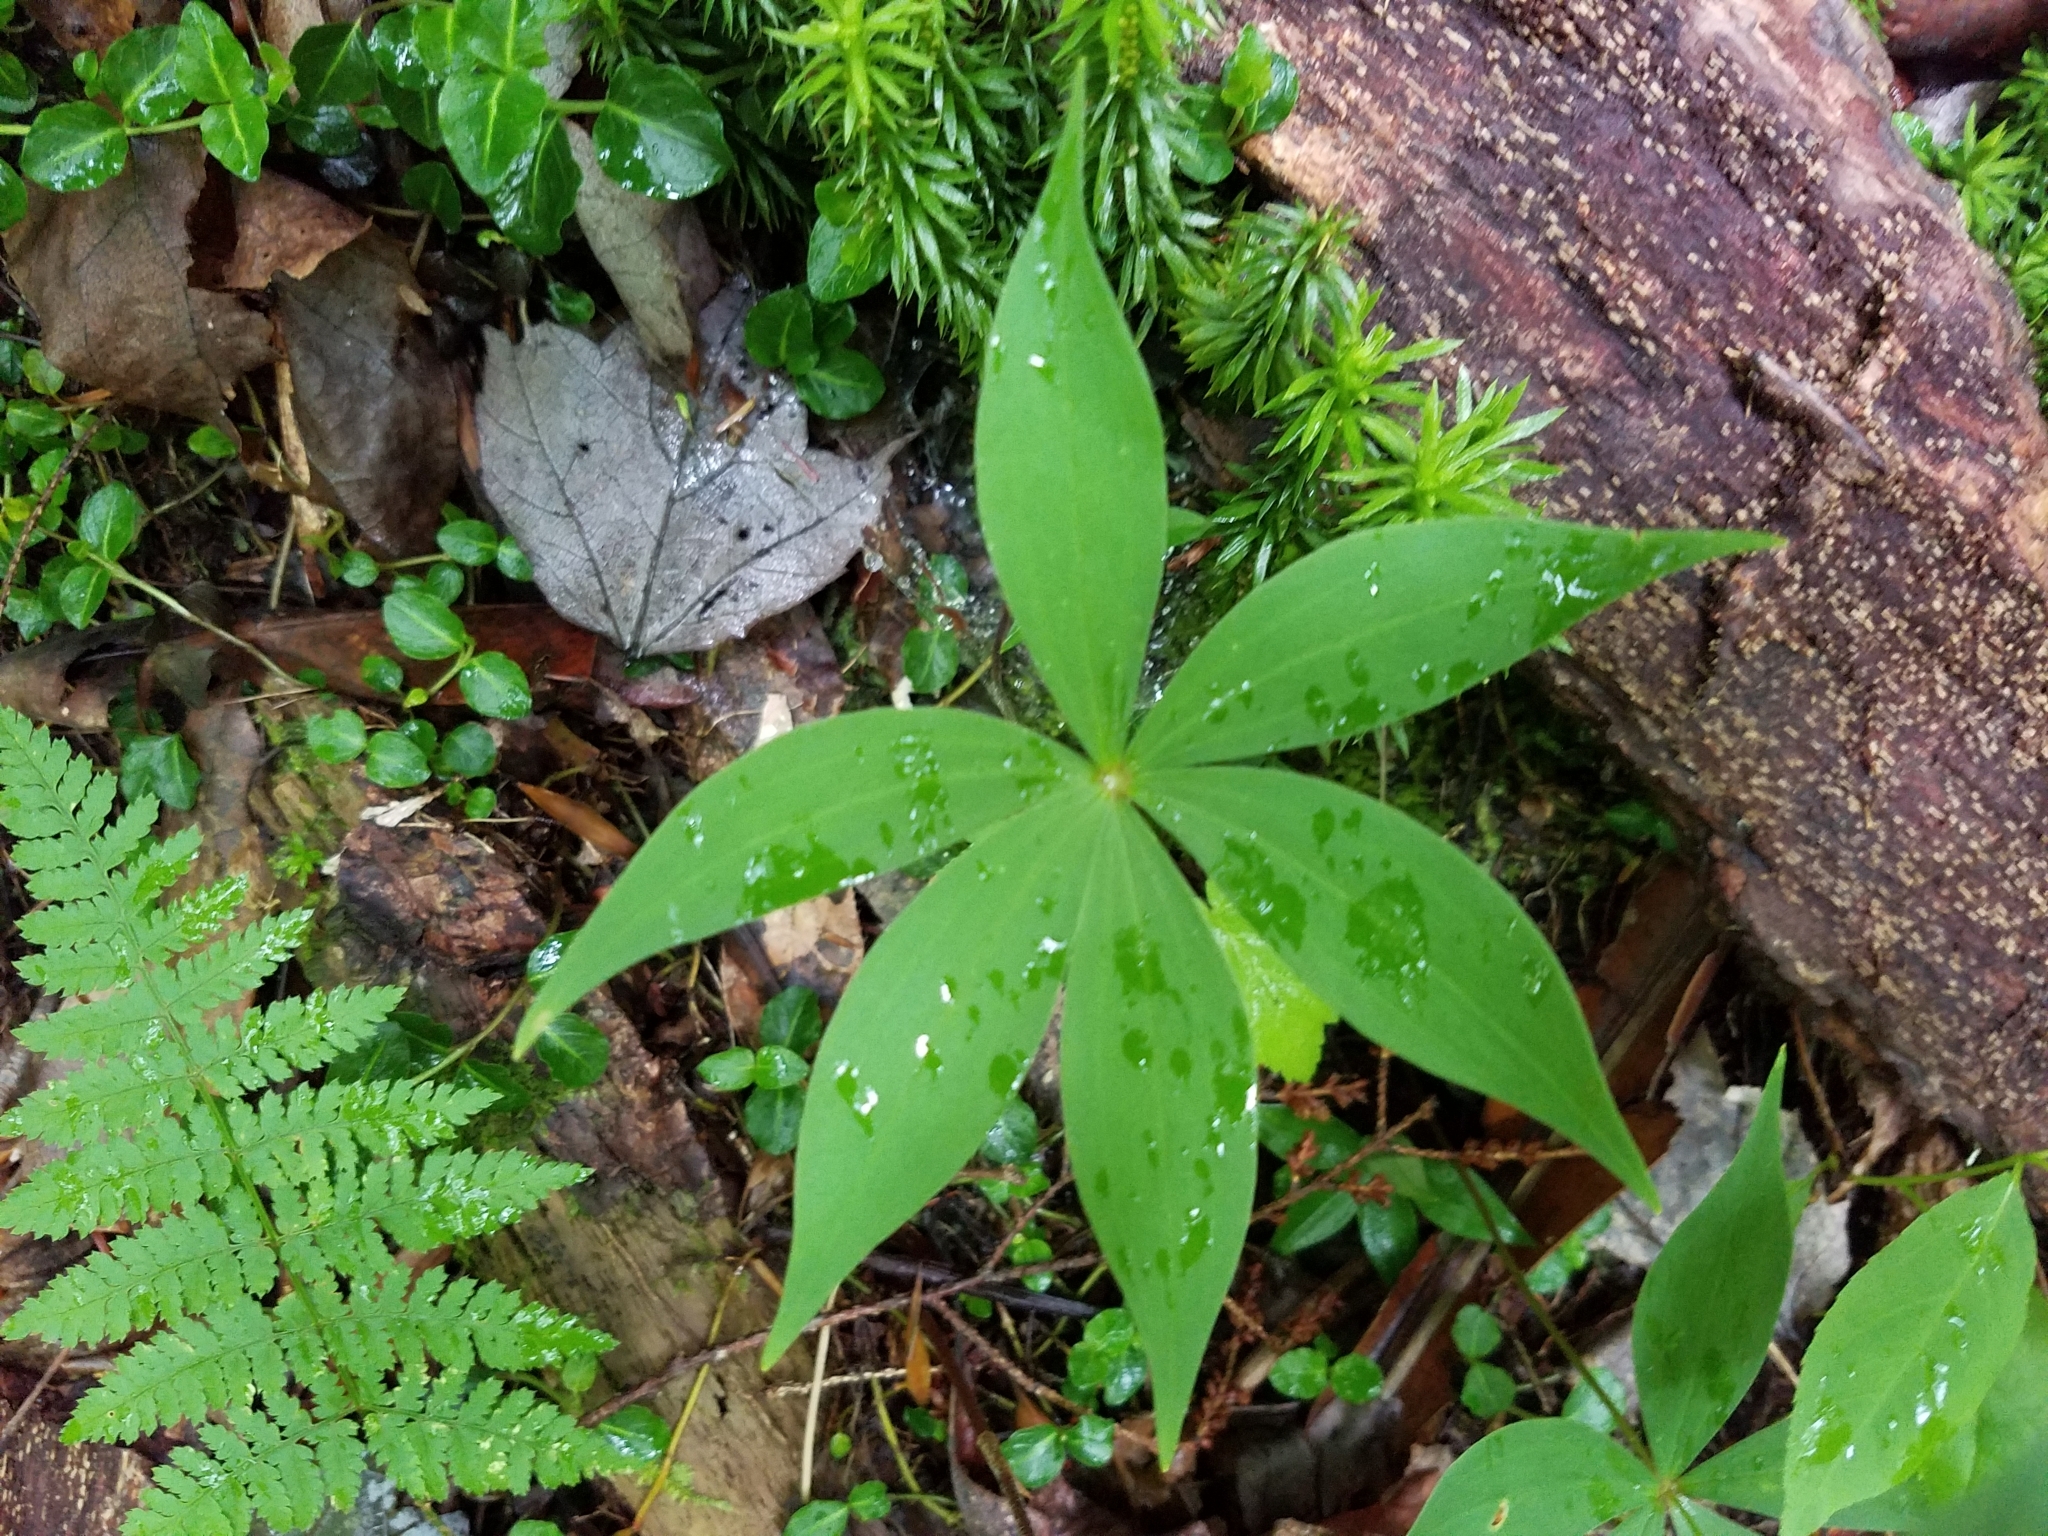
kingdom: Plantae
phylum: Tracheophyta
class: Liliopsida
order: Liliales
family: Liliaceae
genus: Medeola
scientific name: Medeola virginiana
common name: Indian cucumber-root
